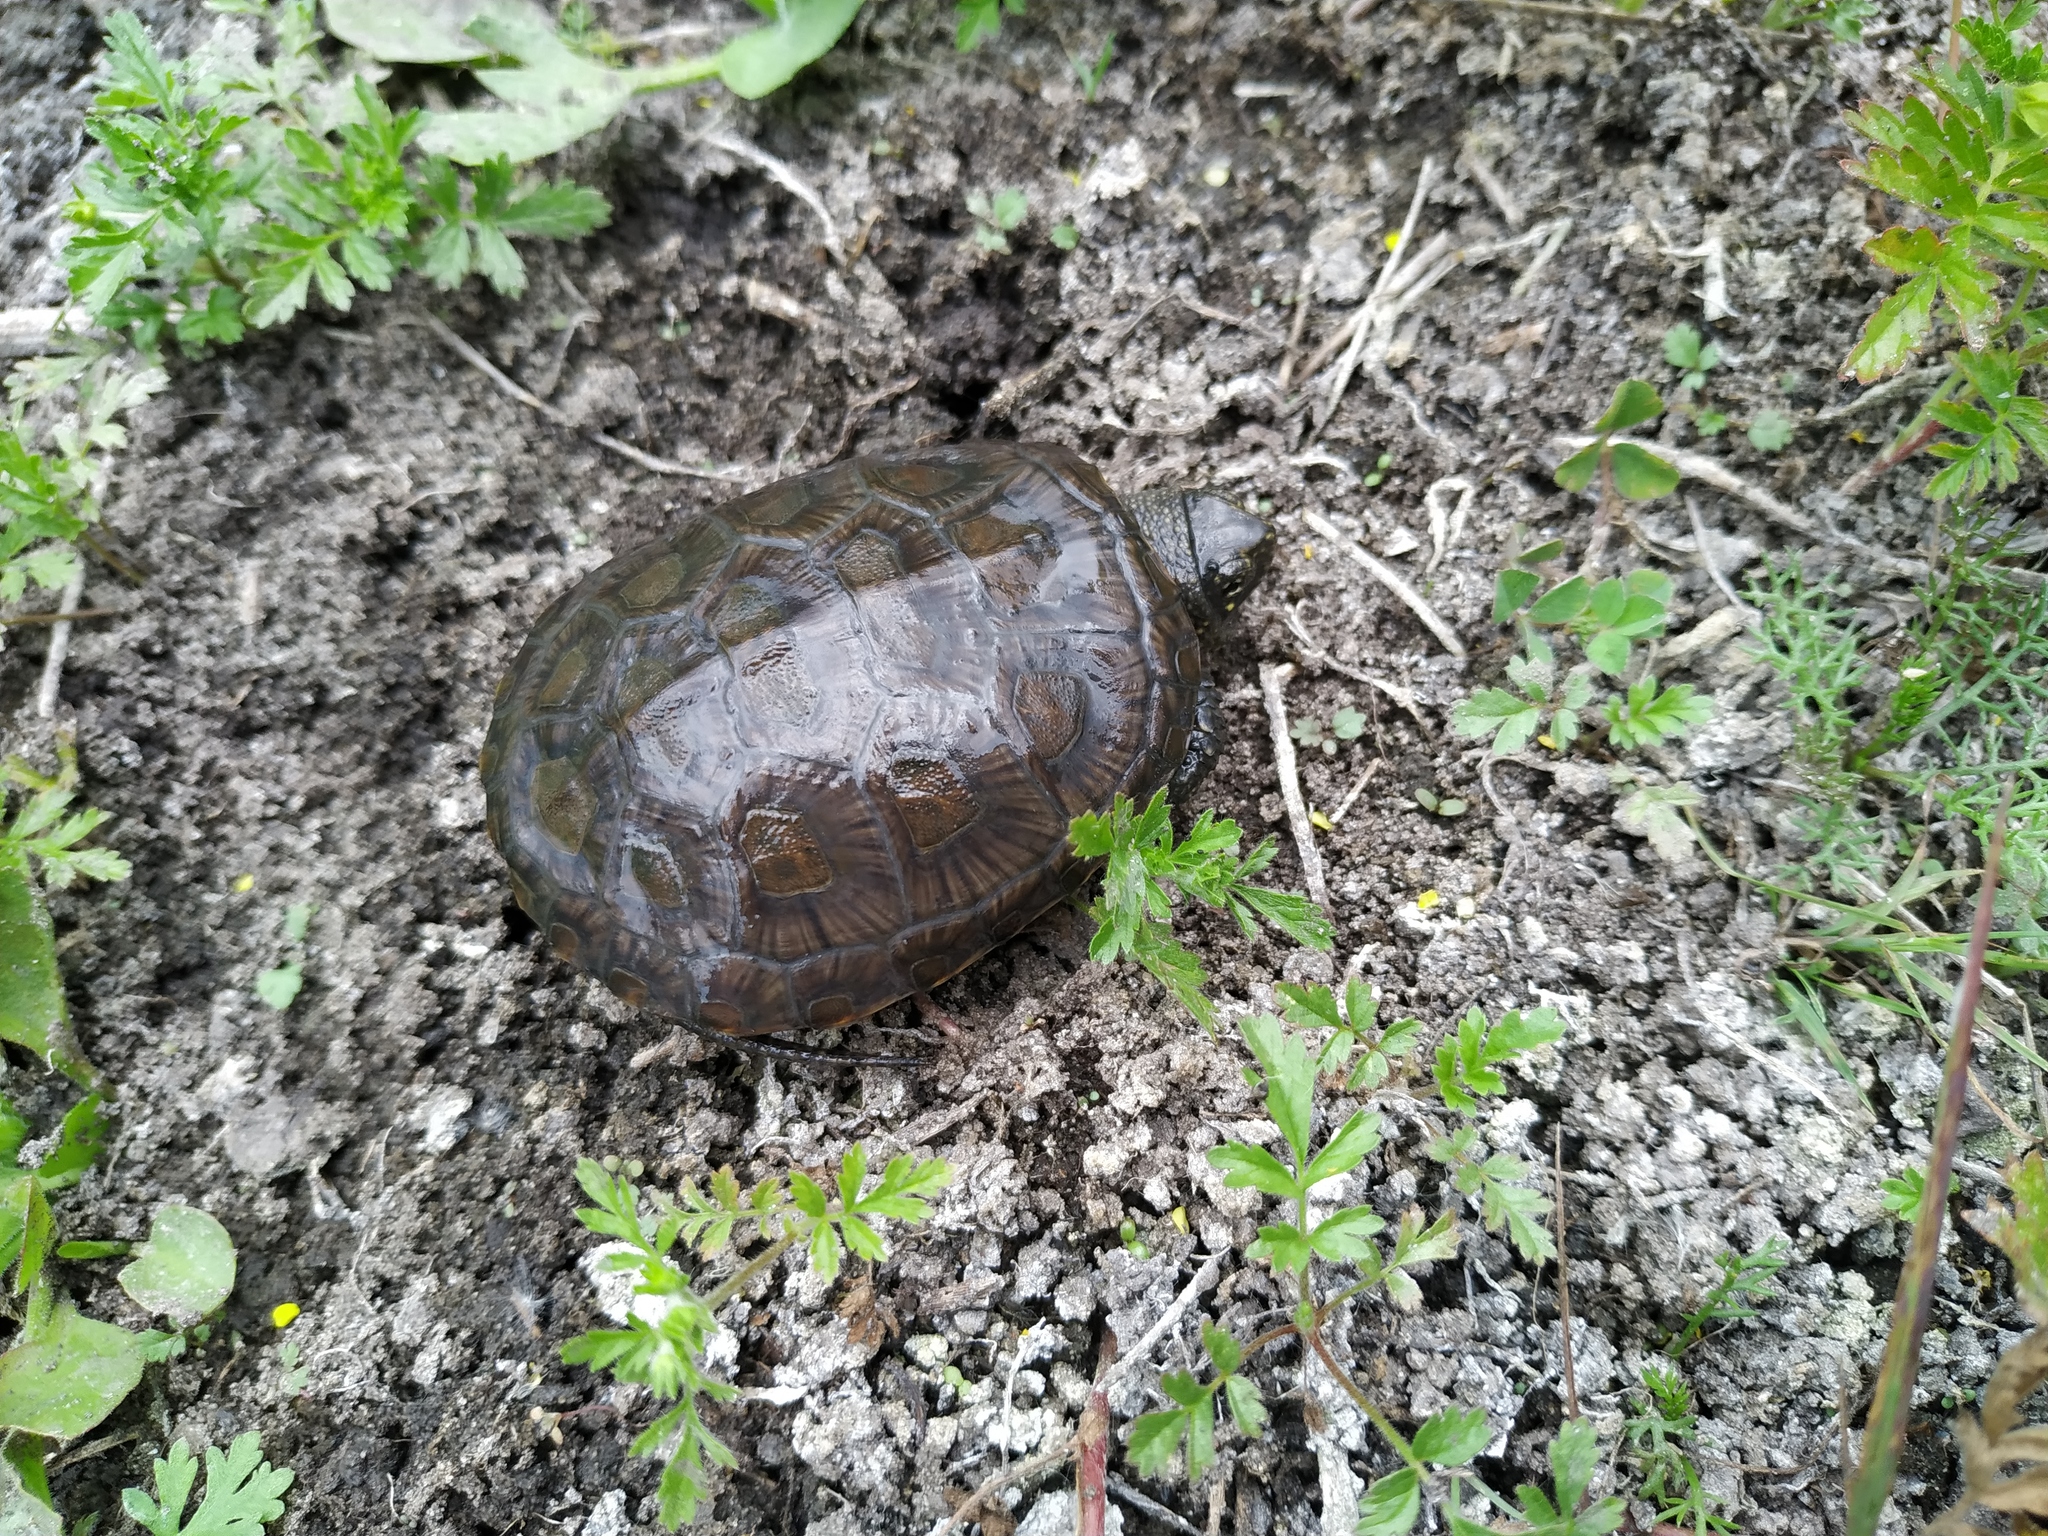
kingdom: Animalia
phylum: Chordata
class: Testudines
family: Emydidae
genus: Emys
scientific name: Emys orbicularis
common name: European pond turtle
